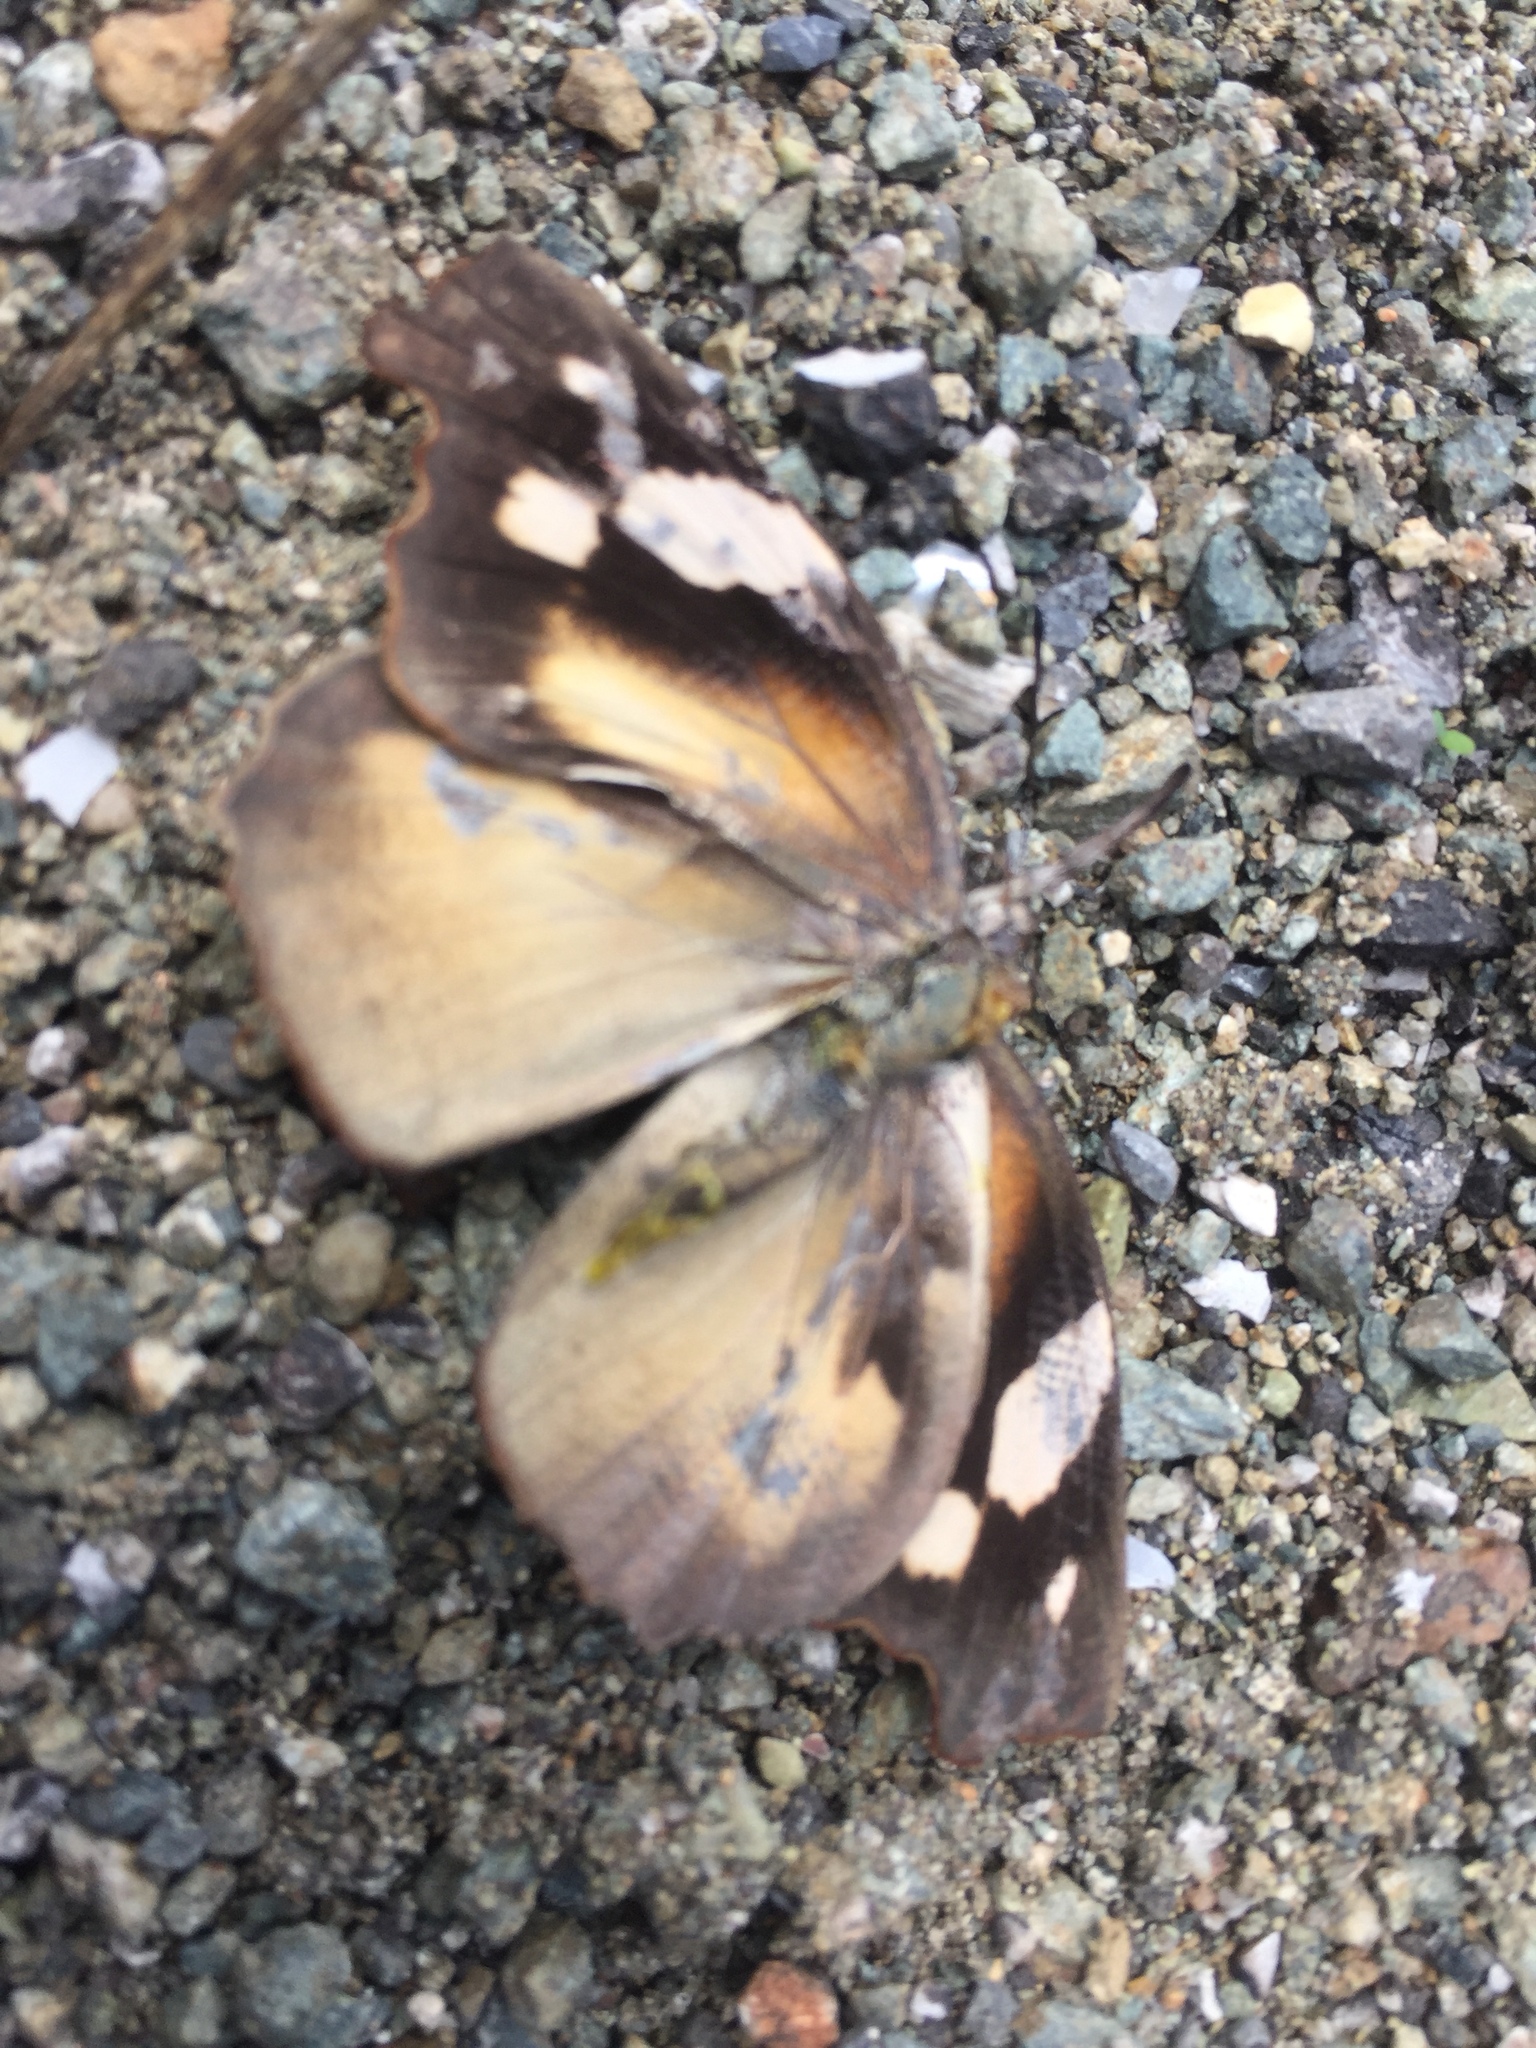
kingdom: Animalia
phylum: Arthropoda
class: Insecta
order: Lepidoptera
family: Nymphalidae
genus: Libytheana
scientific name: Libytheana motya
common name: Cuban snout
